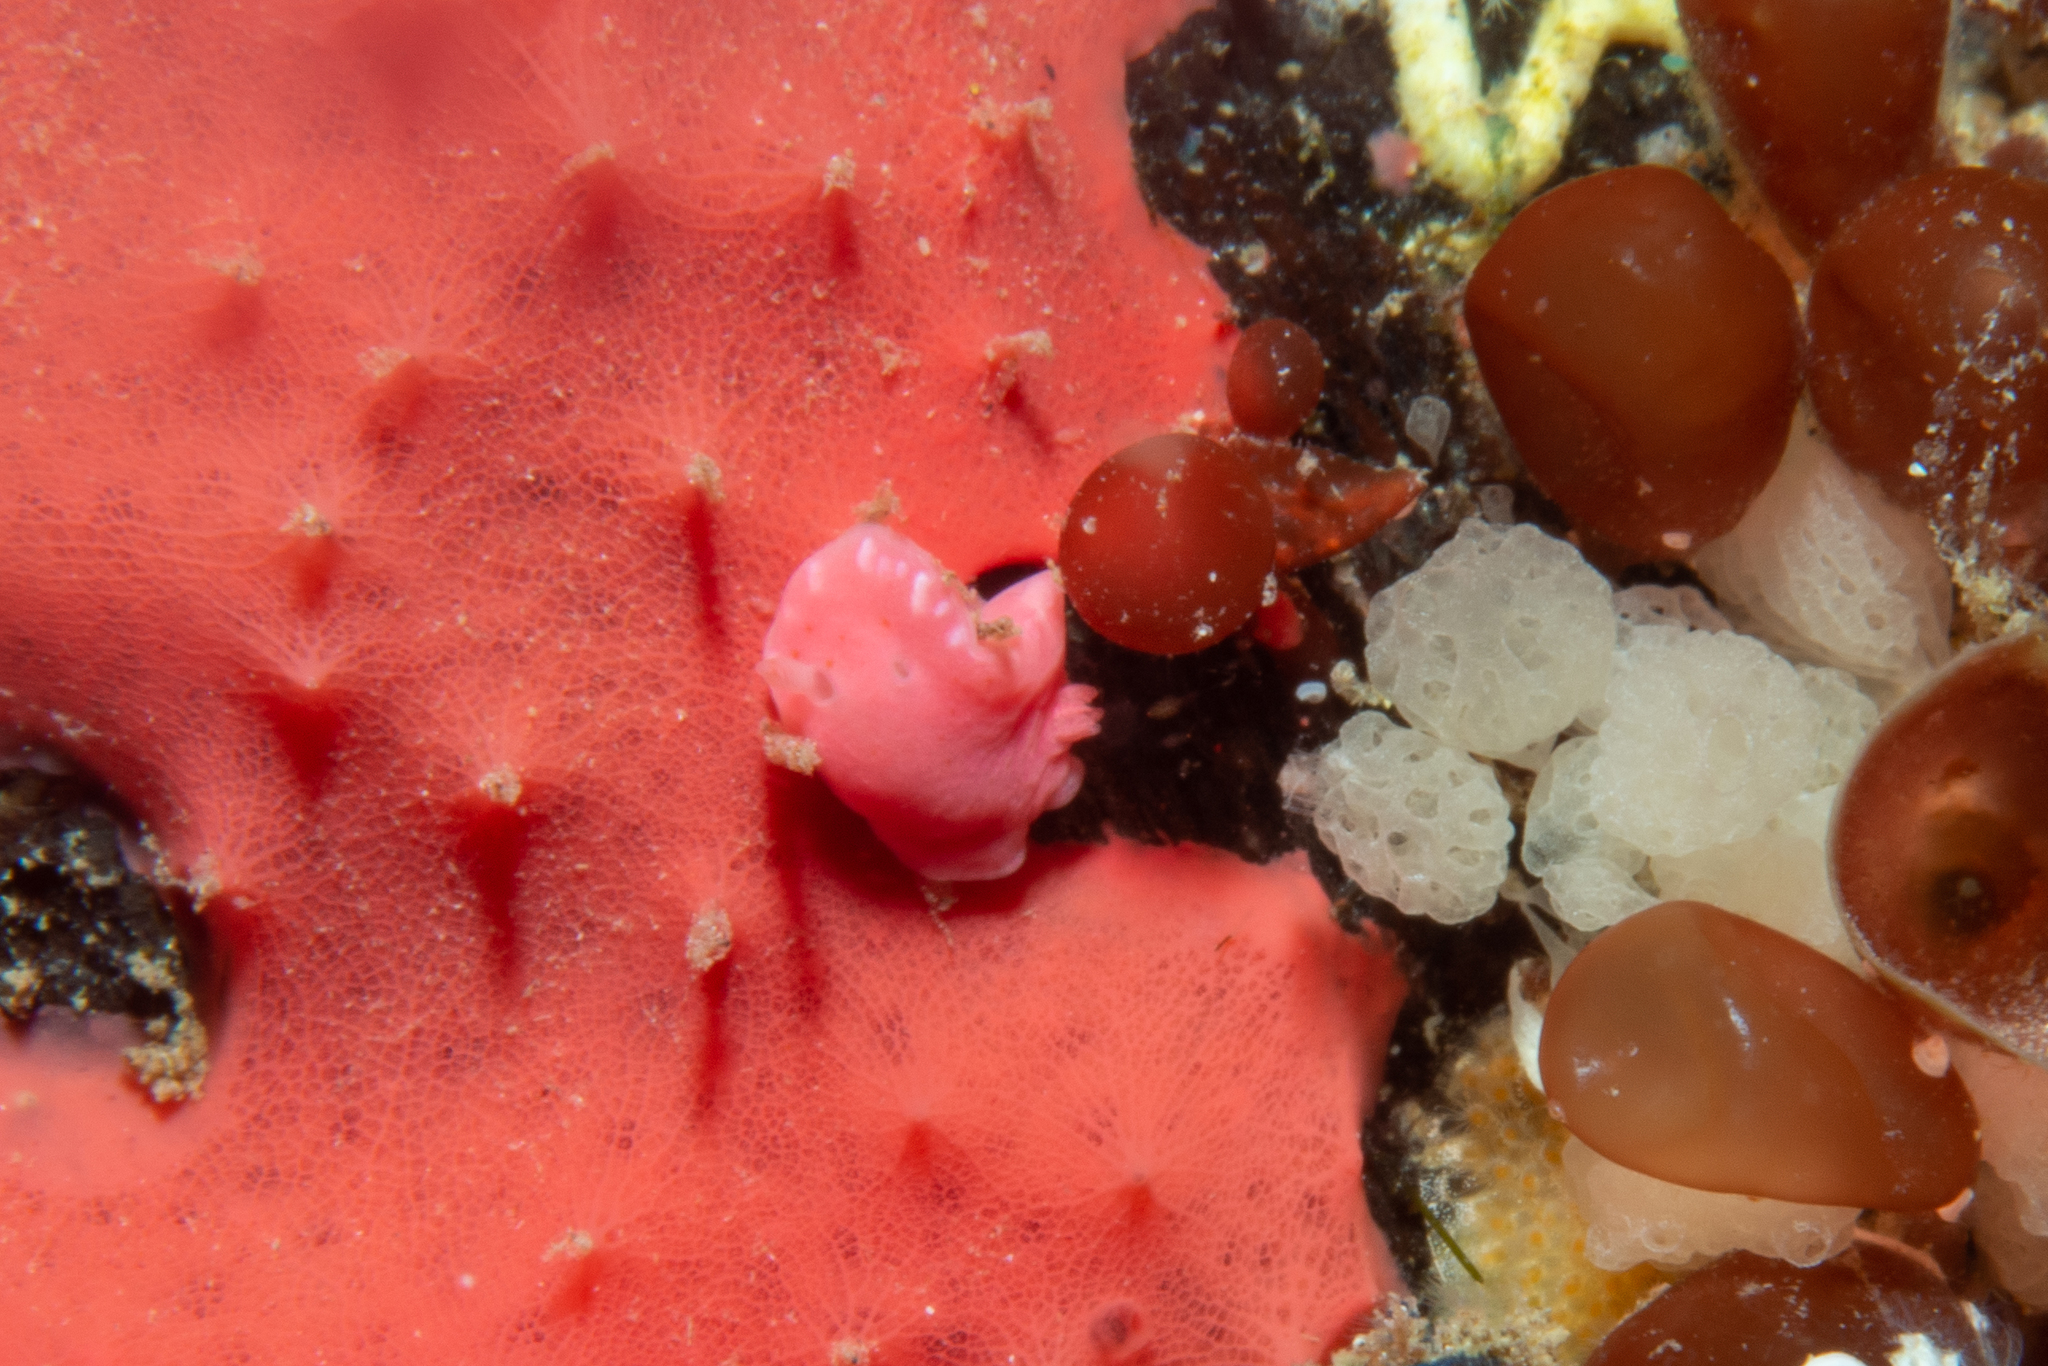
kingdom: Animalia
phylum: Mollusca
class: Gastropoda
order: Nudibranchia
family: Chromodorididae
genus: Verconia
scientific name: Verconia haliclona
